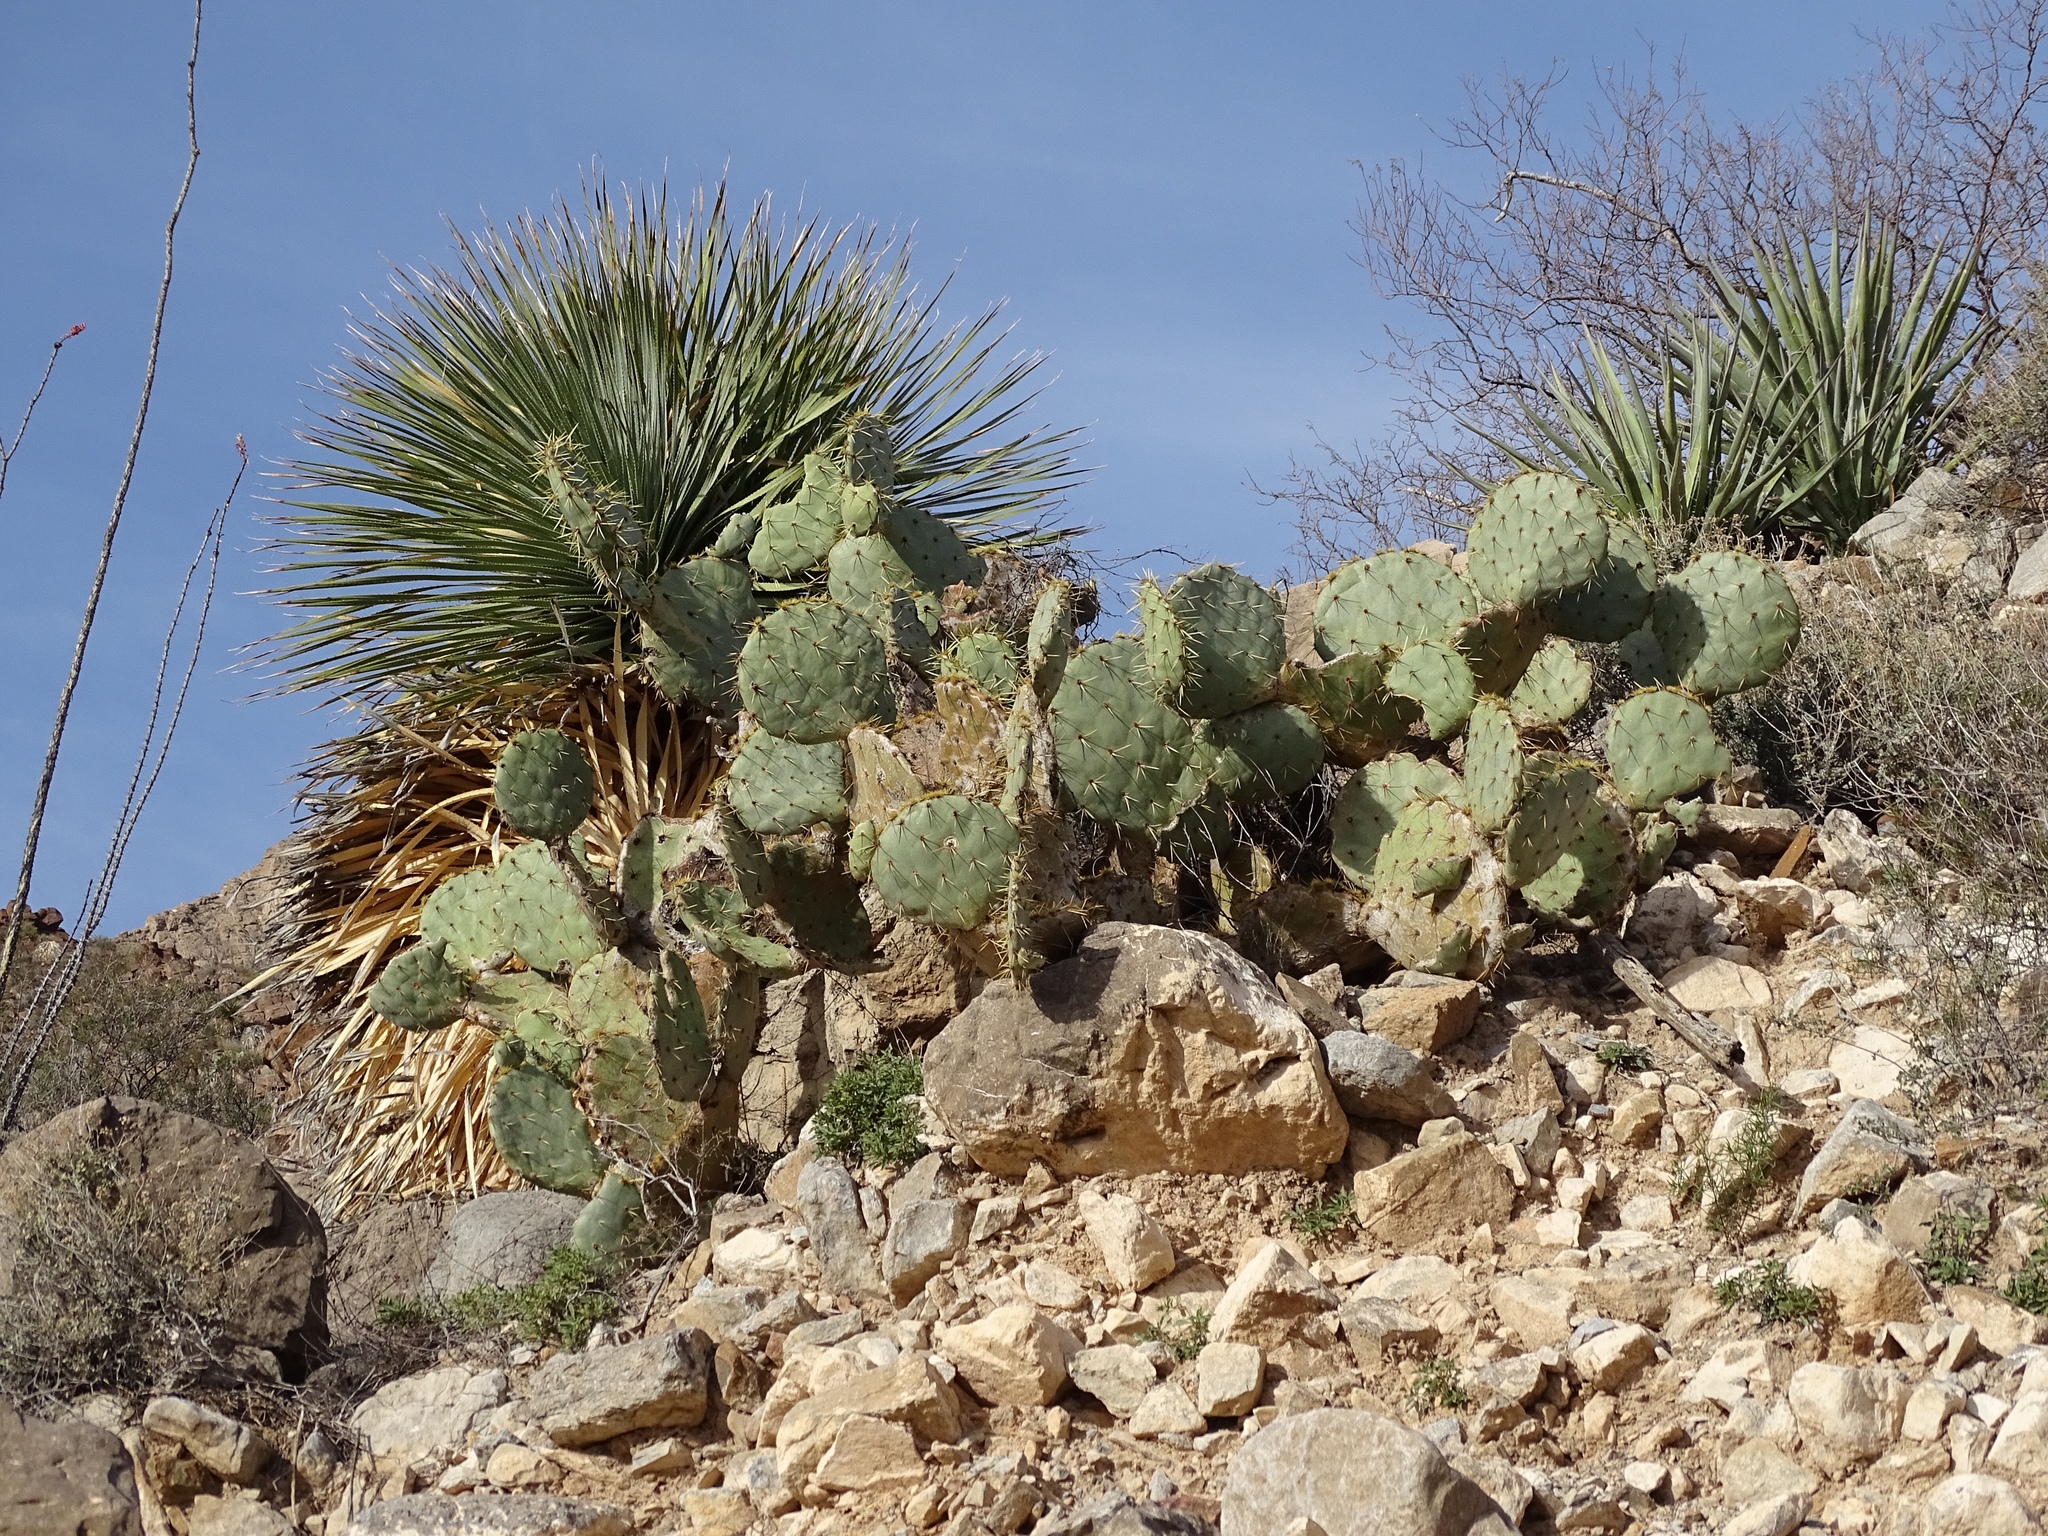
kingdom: Plantae
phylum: Tracheophyta
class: Magnoliopsida
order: Caryophyllales
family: Cactaceae
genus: Opuntia
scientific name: Opuntia engelmannii
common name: Cactus-apple
